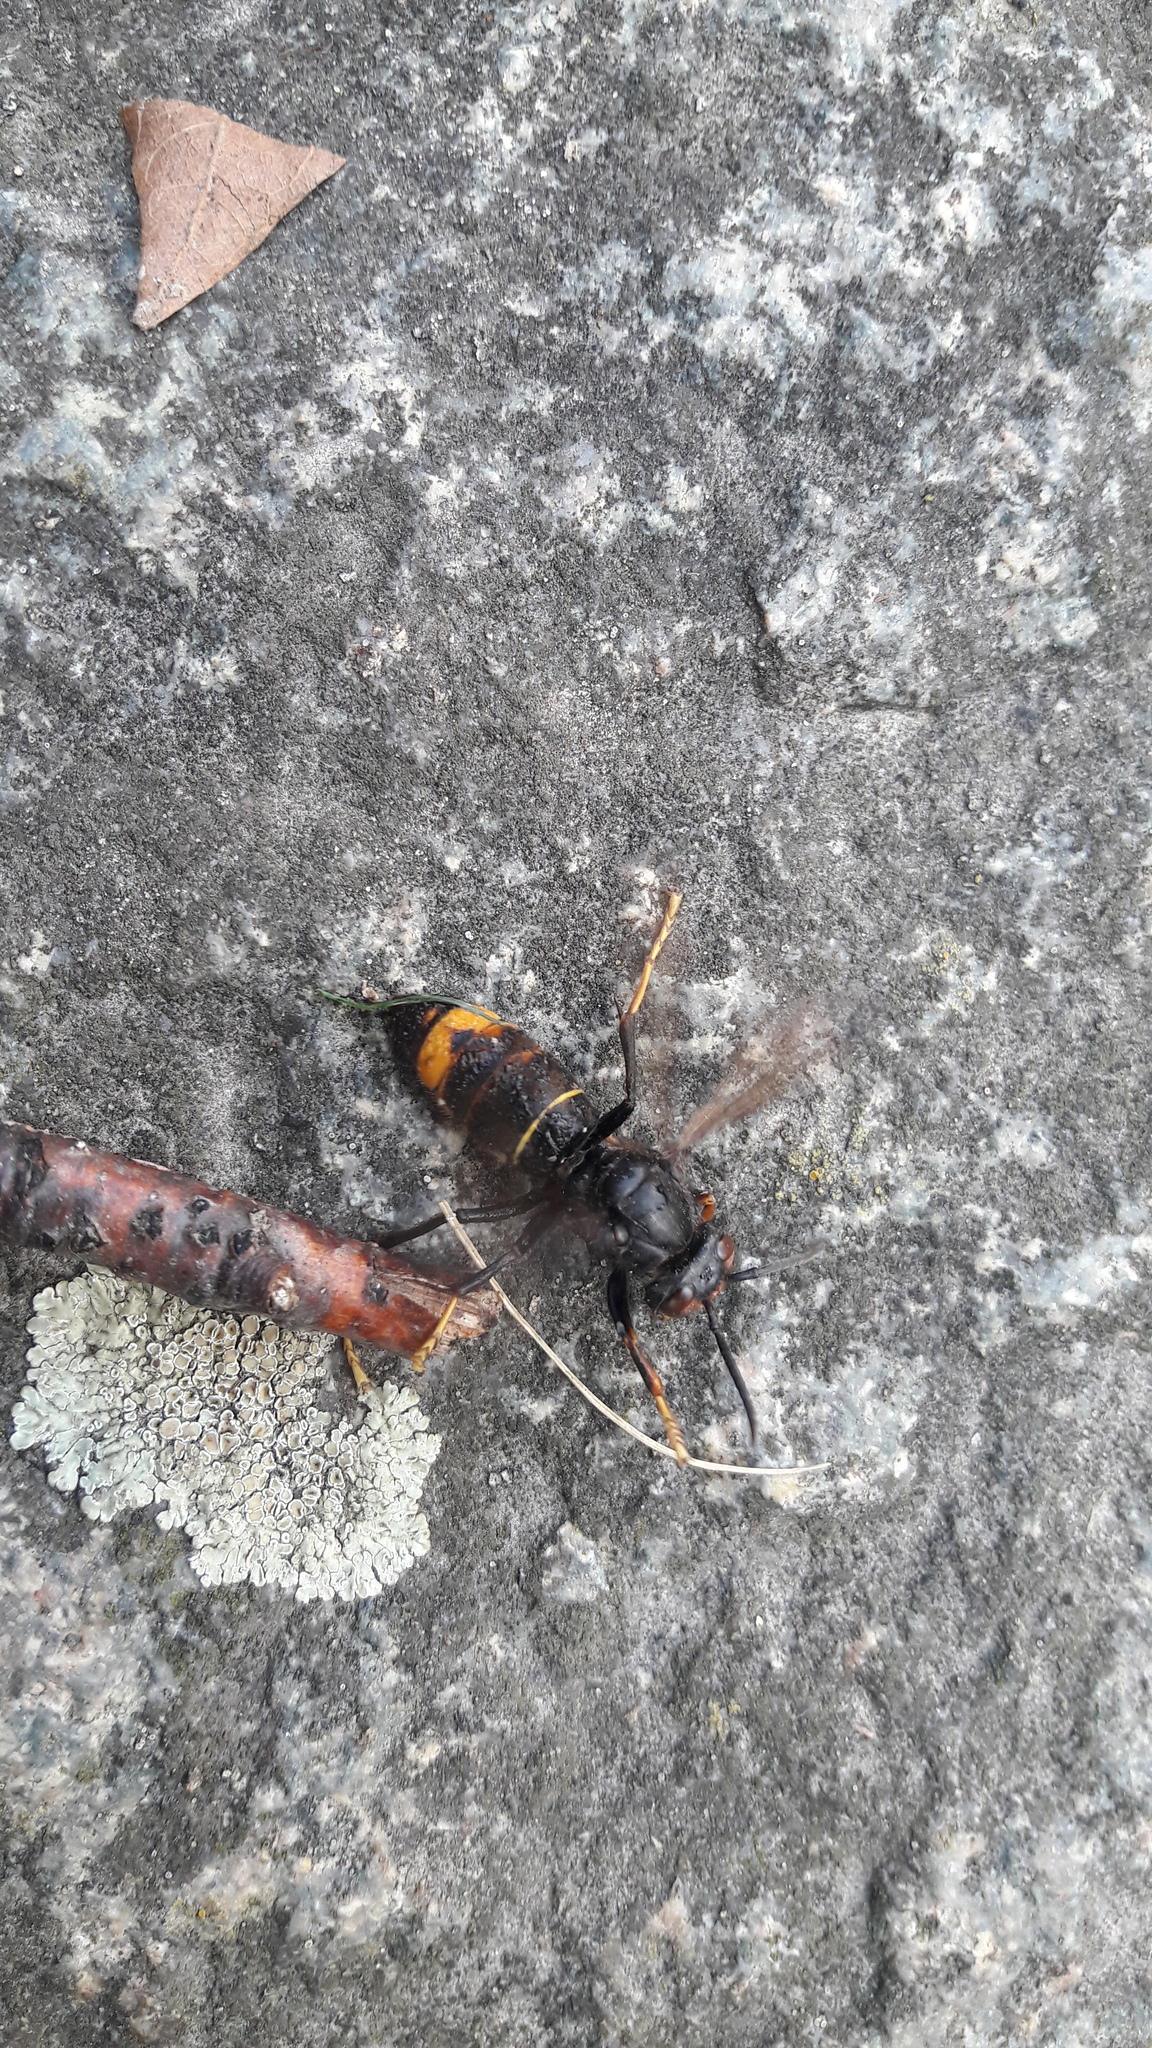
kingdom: Animalia
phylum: Arthropoda
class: Insecta
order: Hymenoptera
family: Vespidae
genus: Vespa
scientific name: Vespa velutina
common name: Asian hornet
